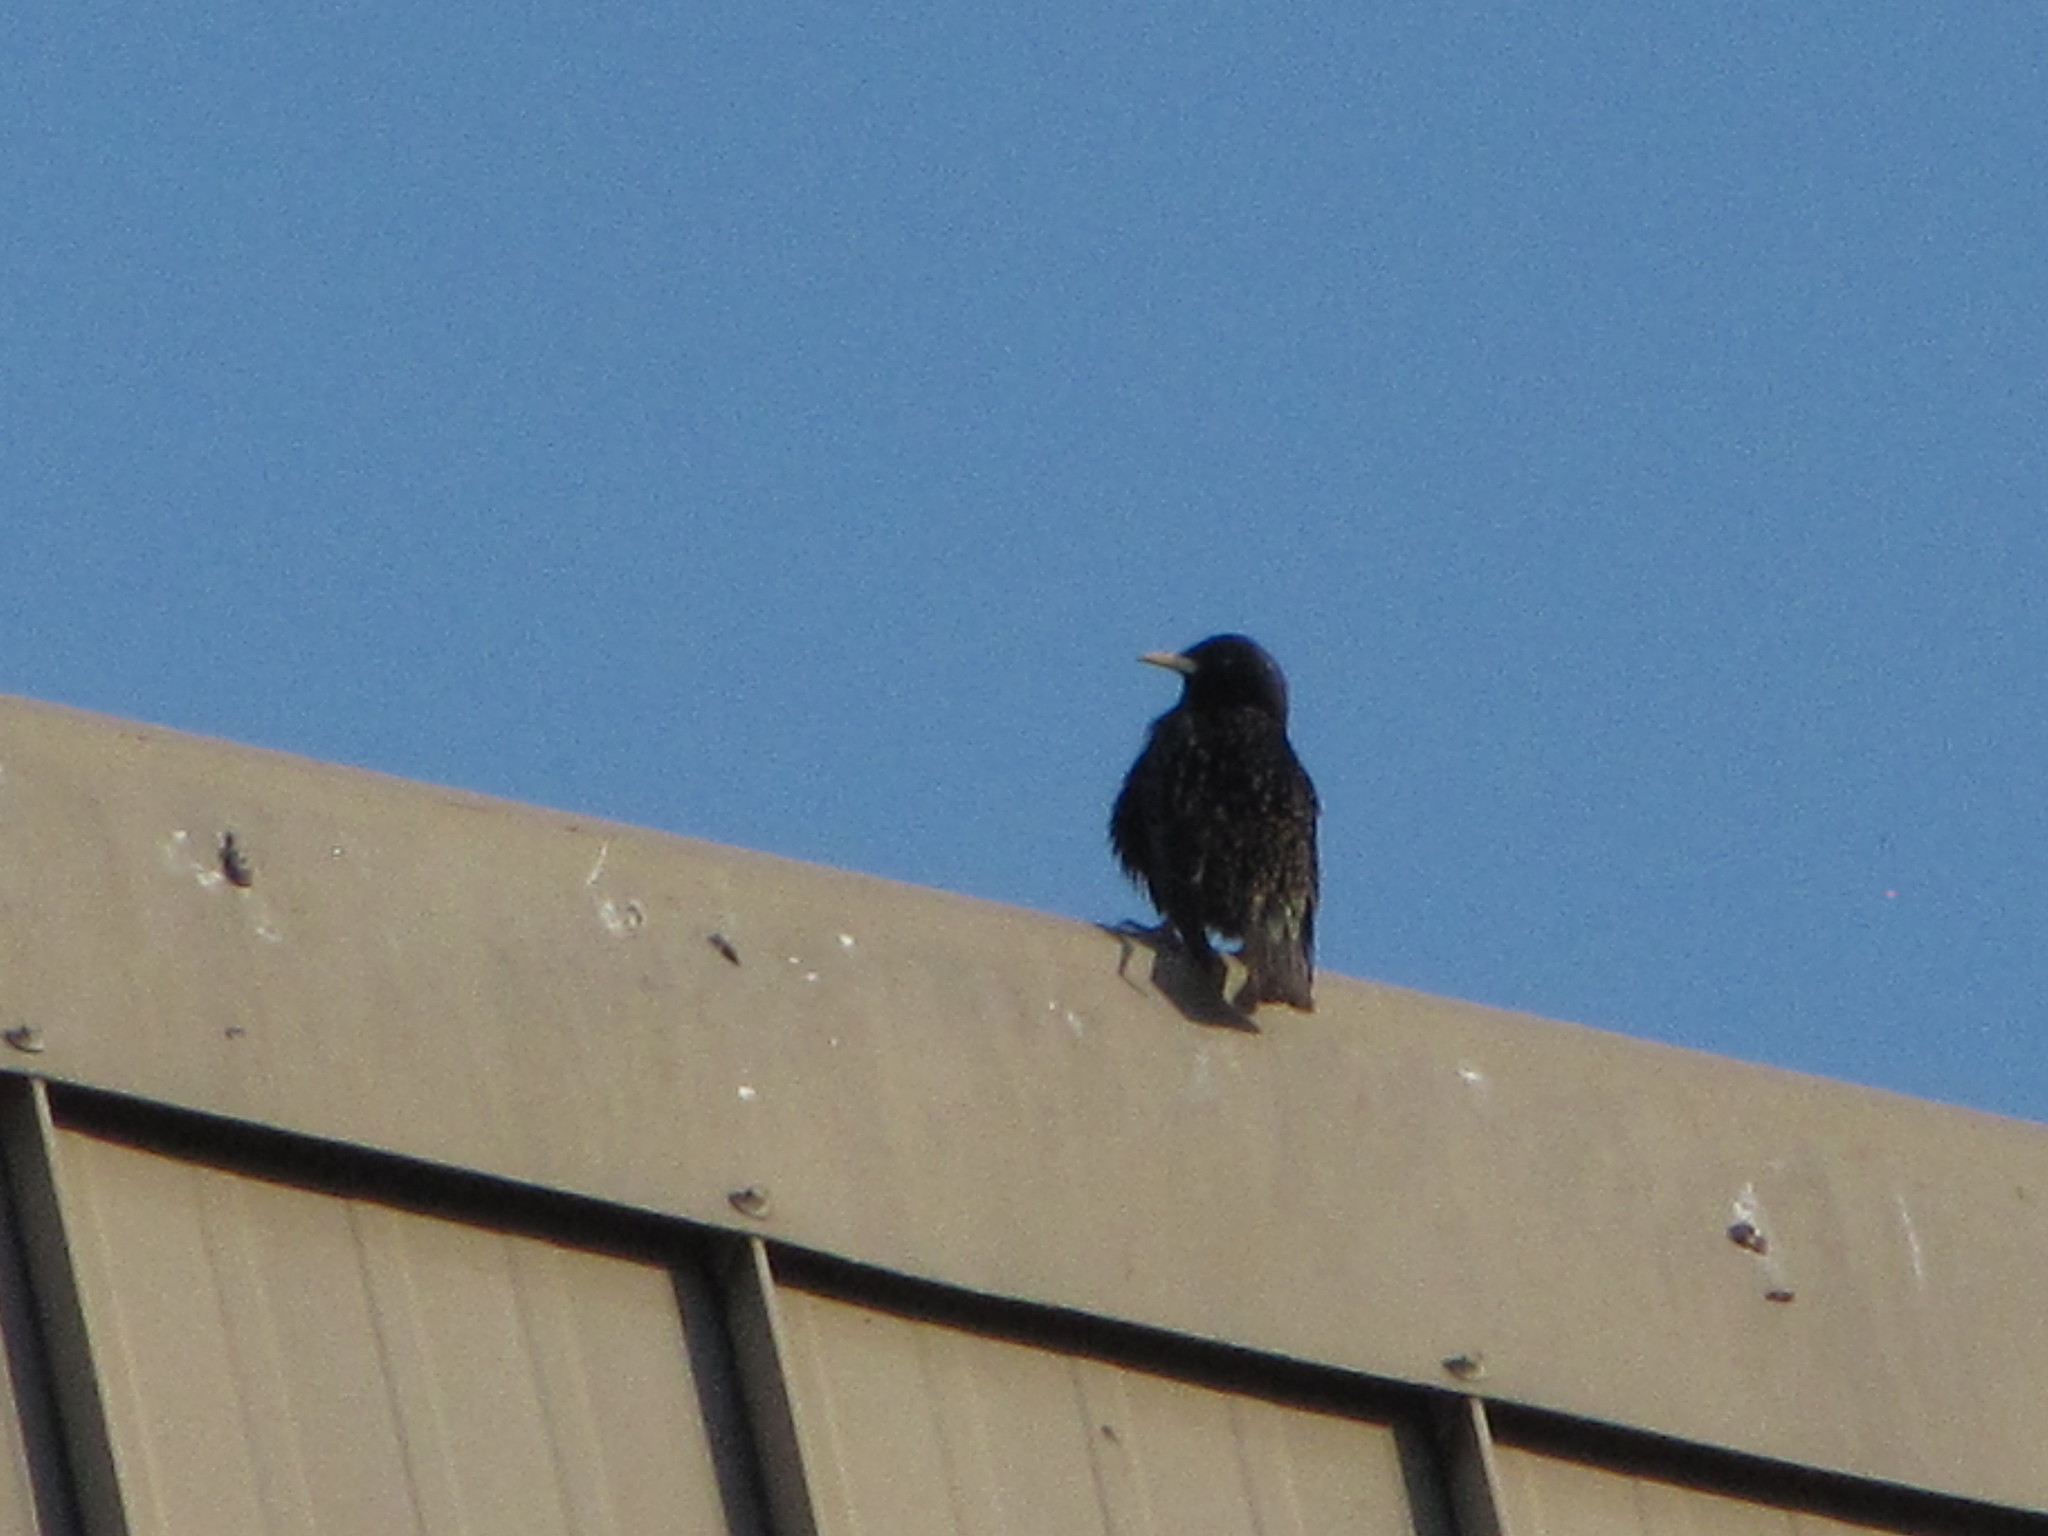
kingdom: Animalia
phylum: Chordata
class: Aves
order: Passeriformes
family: Sturnidae
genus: Sturnus
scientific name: Sturnus vulgaris
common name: Common starling
